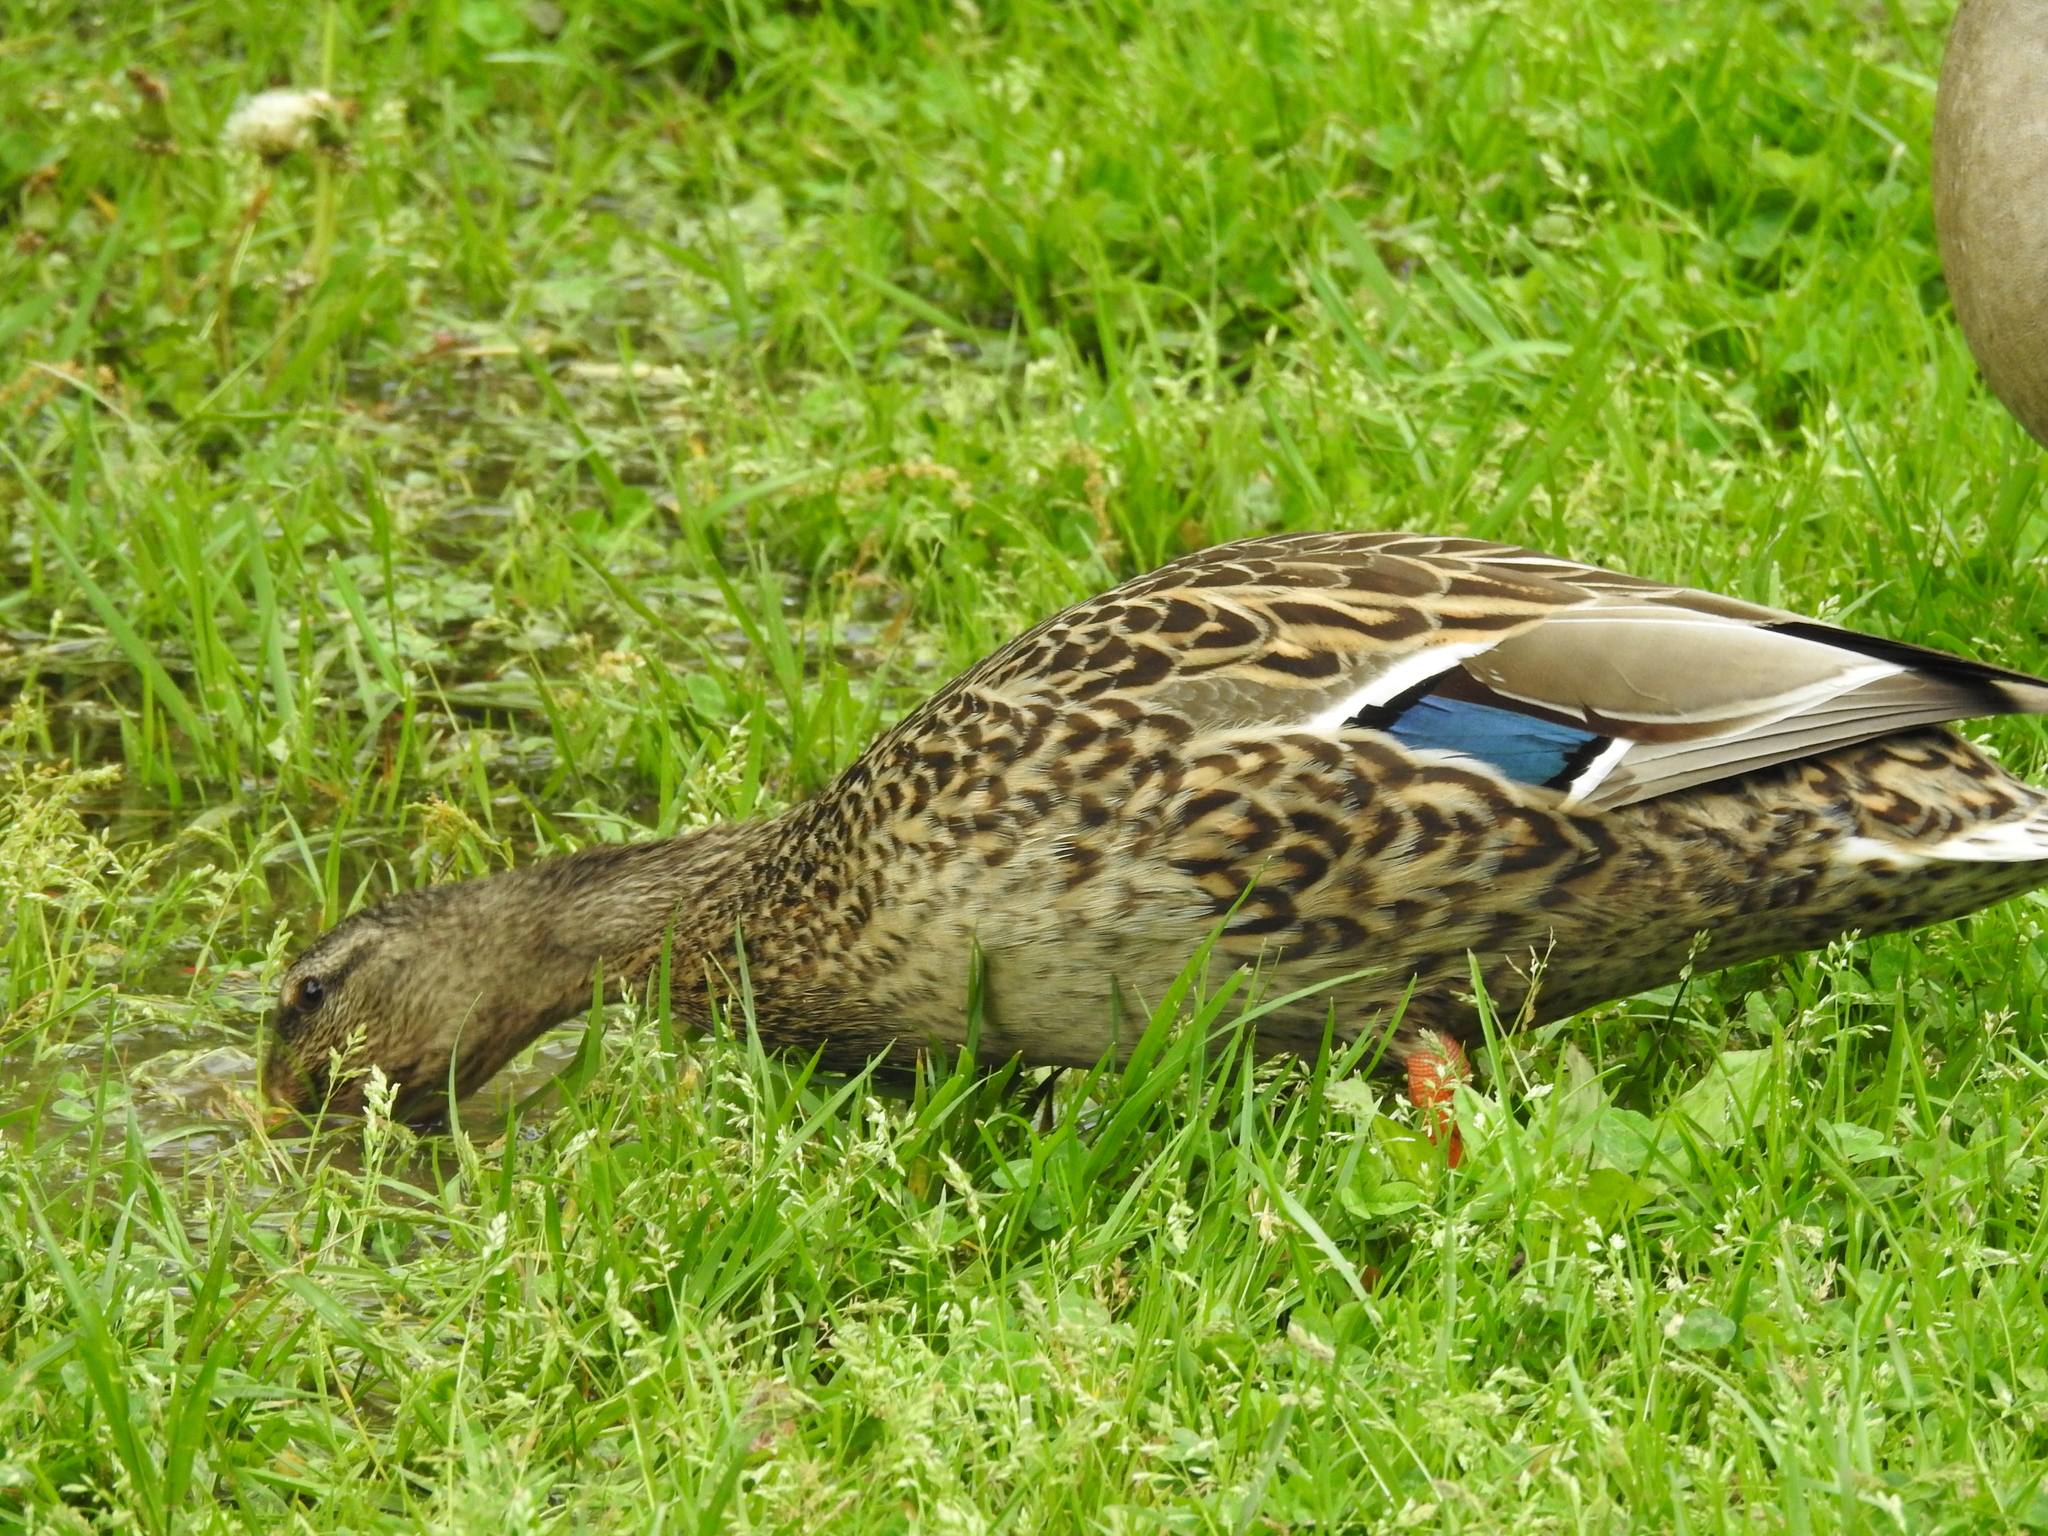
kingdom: Animalia
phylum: Chordata
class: Aves
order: Anseriformes
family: Anatidae
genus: Anas
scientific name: Anas platyrhynchos
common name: Mallard
